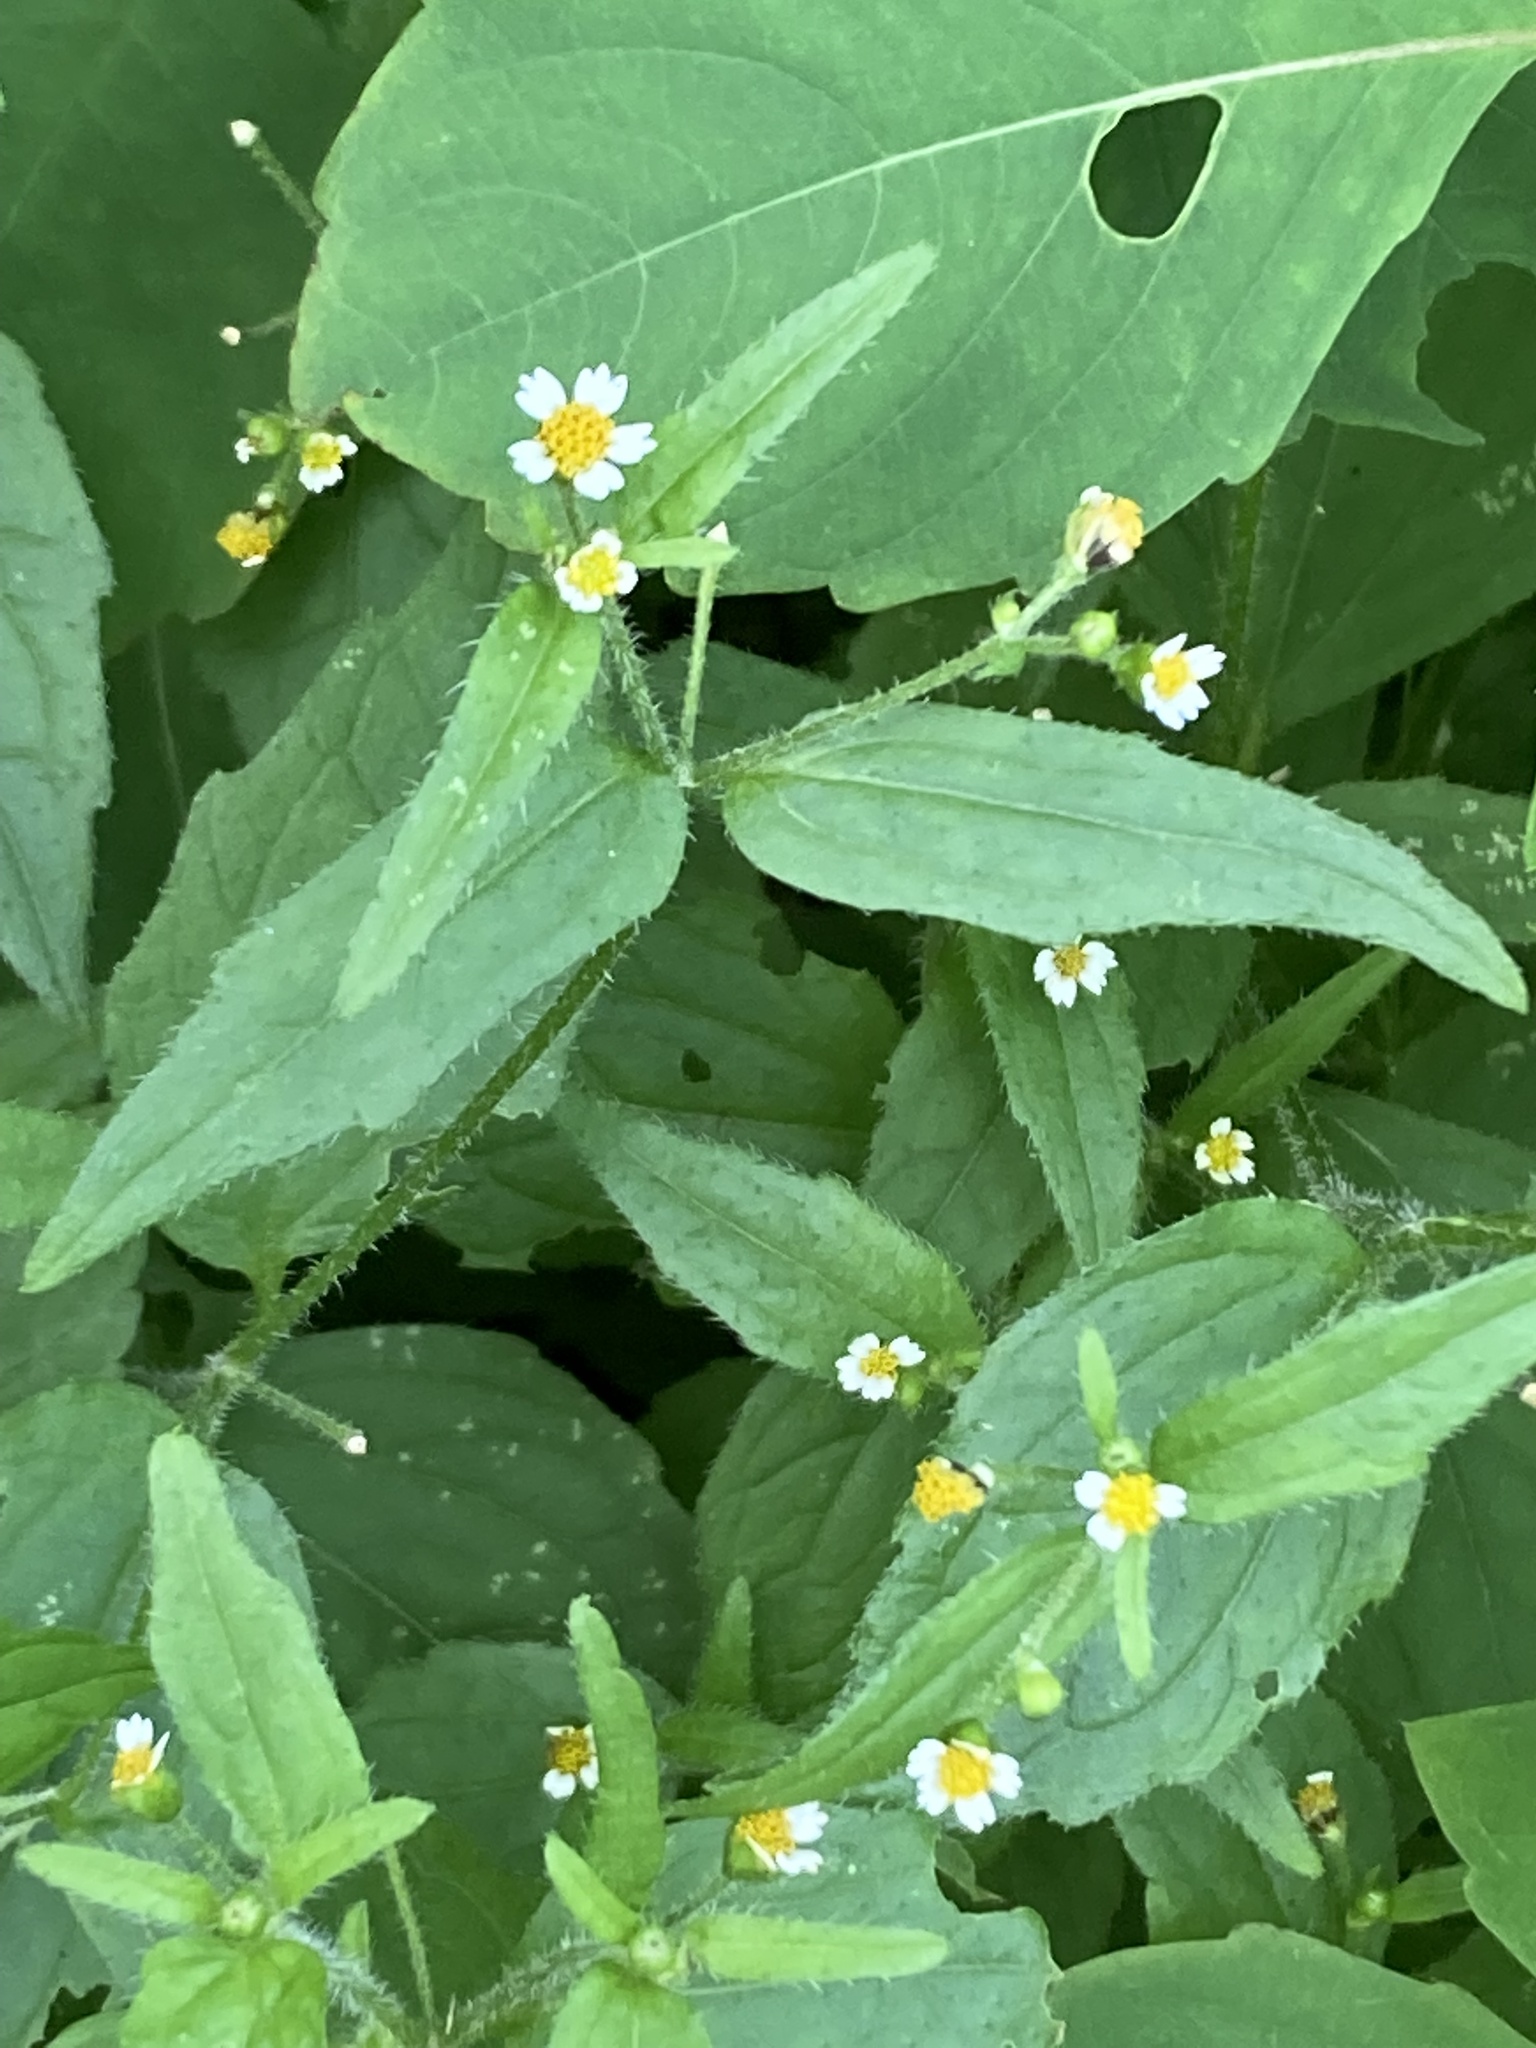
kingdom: Plantae
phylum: Tracheophyta
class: Magnoliopsida
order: Asterales
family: Asteraceae
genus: Galinsoga
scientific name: Galinsoga quadriradiata
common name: Shaggy soldier
